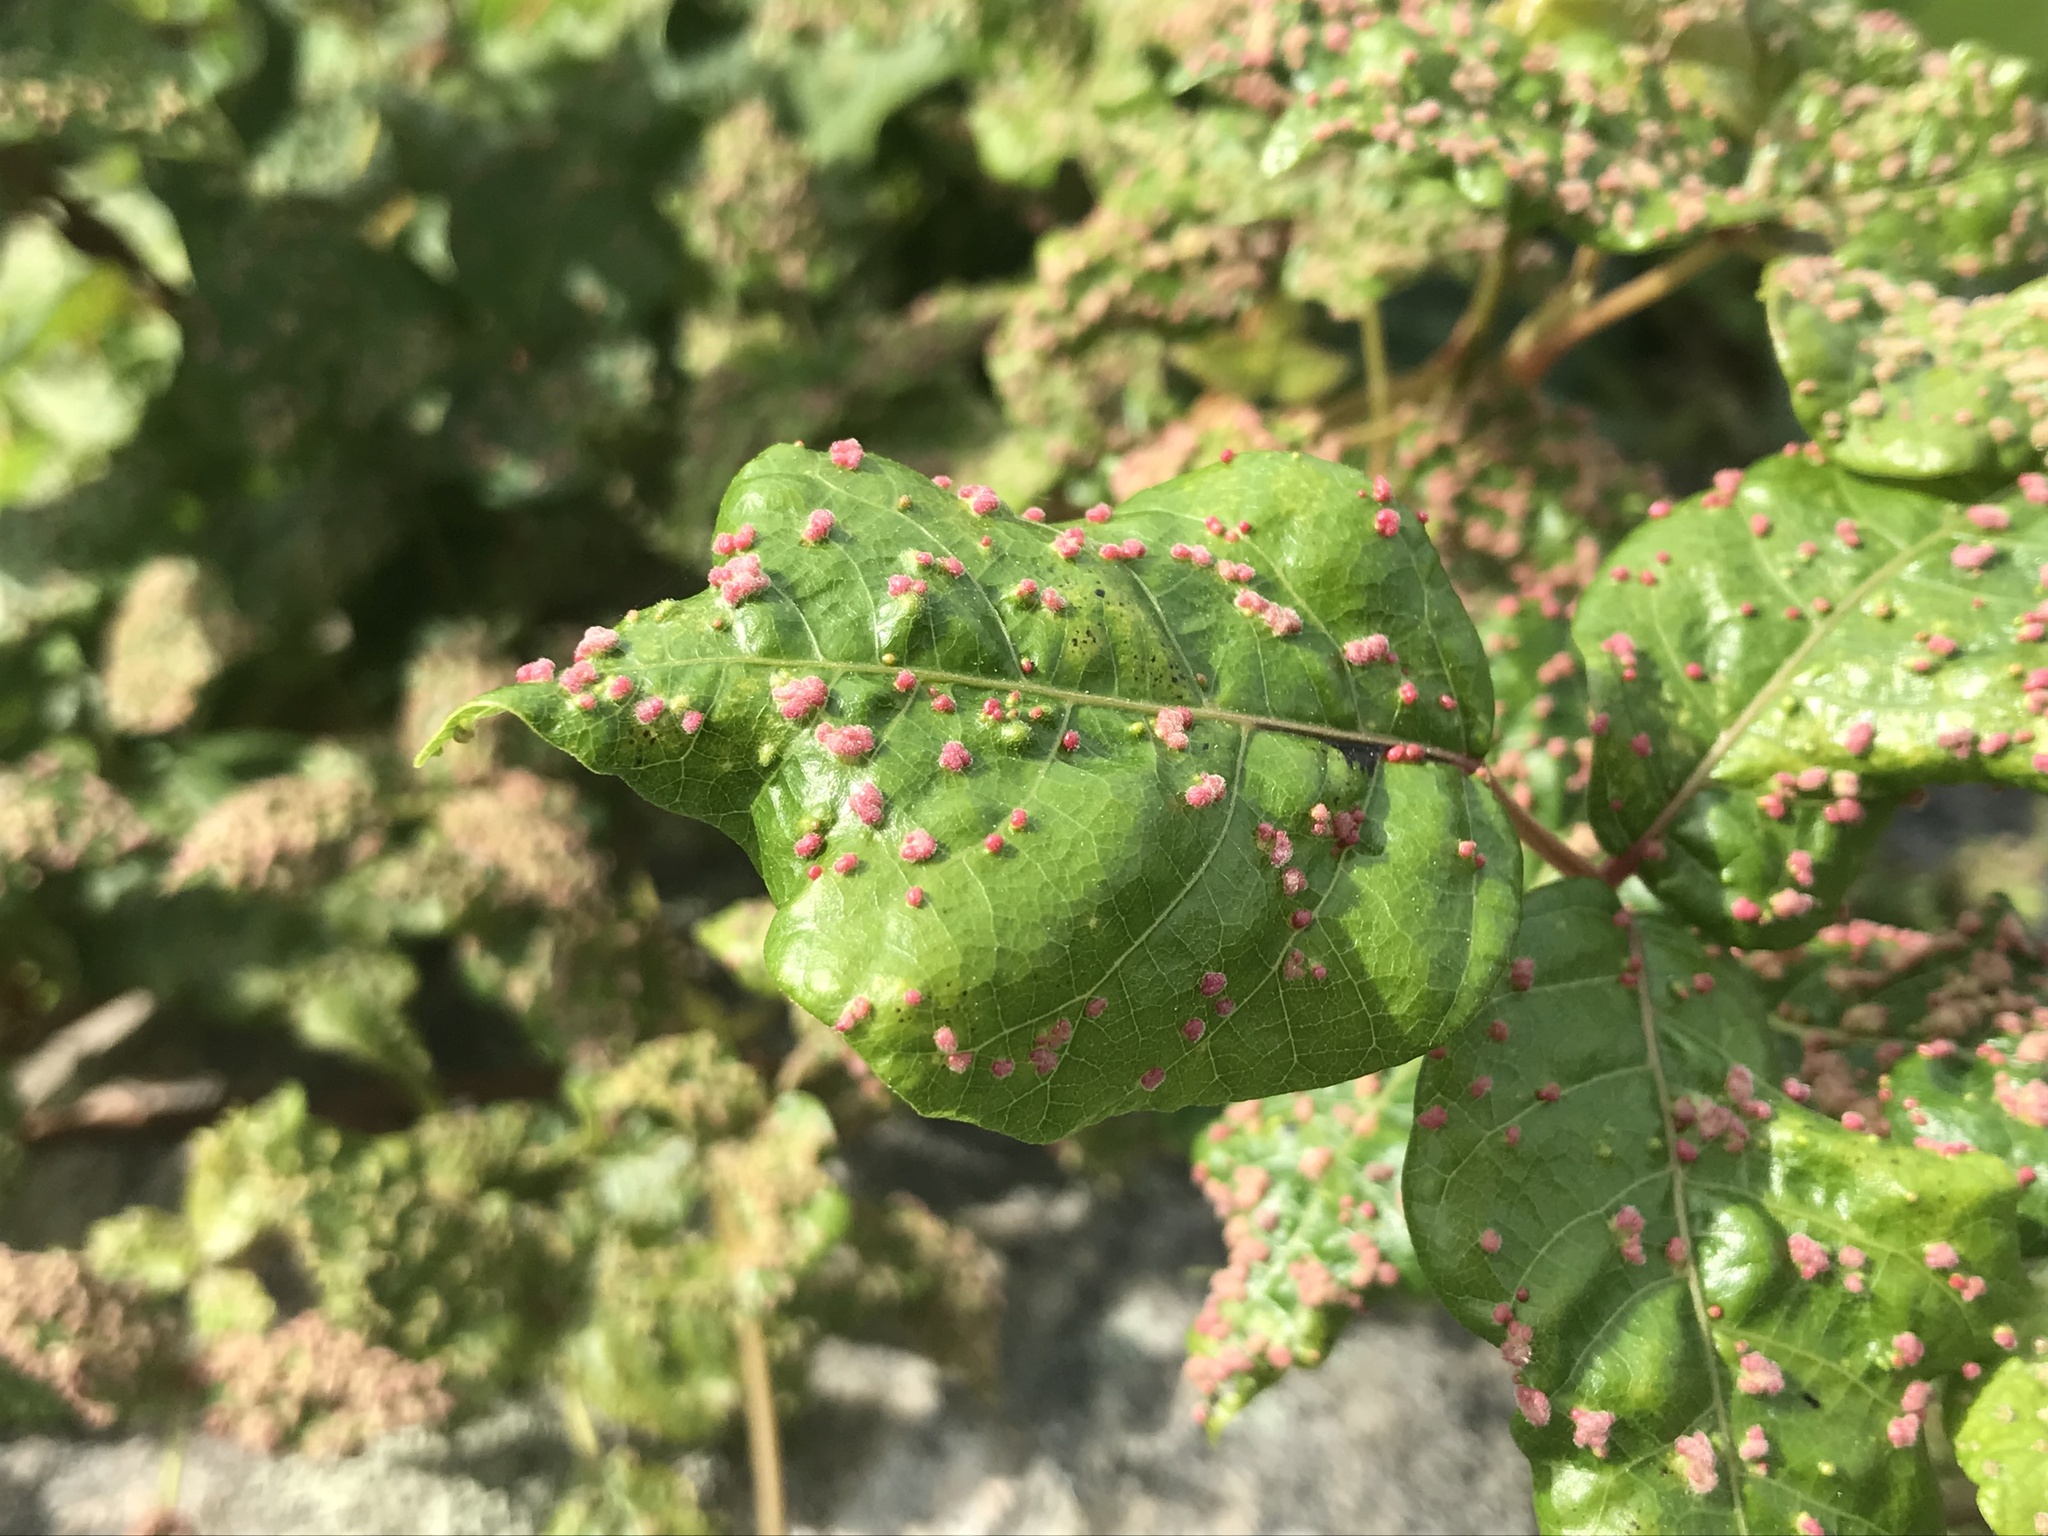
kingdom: Animalia
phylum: Arthropoda
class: Arachnida
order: Trombidiformes
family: Eriophyidae
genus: Aculops
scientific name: Aculops
